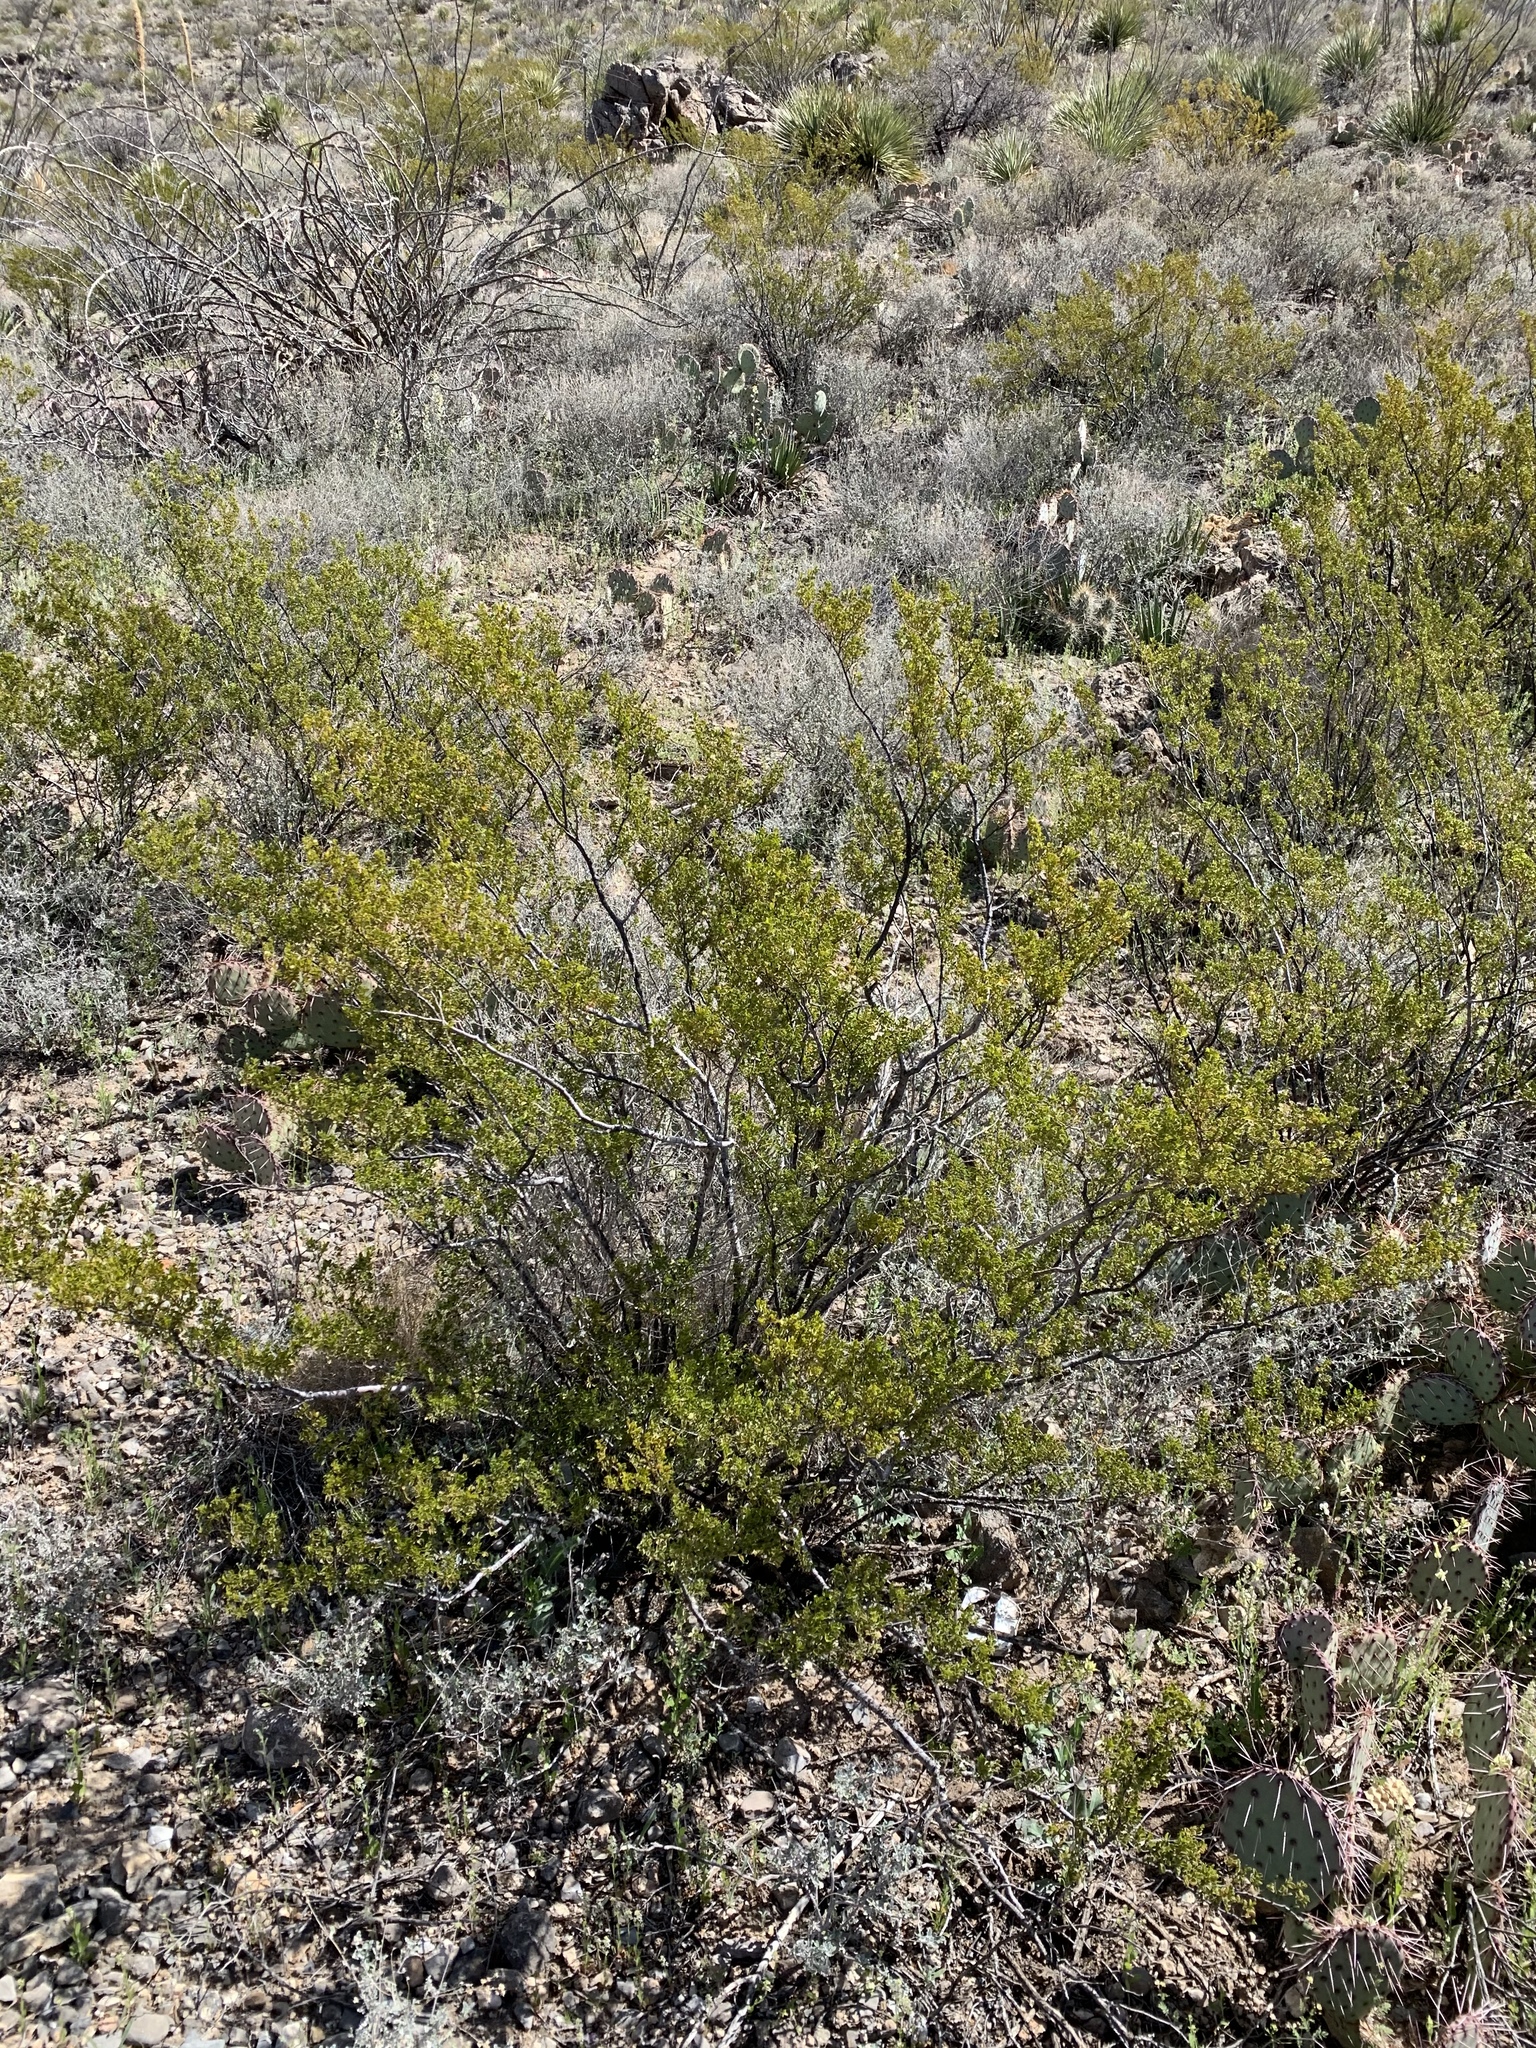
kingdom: Plantae
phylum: Tracheophyta
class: Magnoliopsida
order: Zygophyllales
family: Zygophyllaceae
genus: Larrea
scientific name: Larrea tridentata
